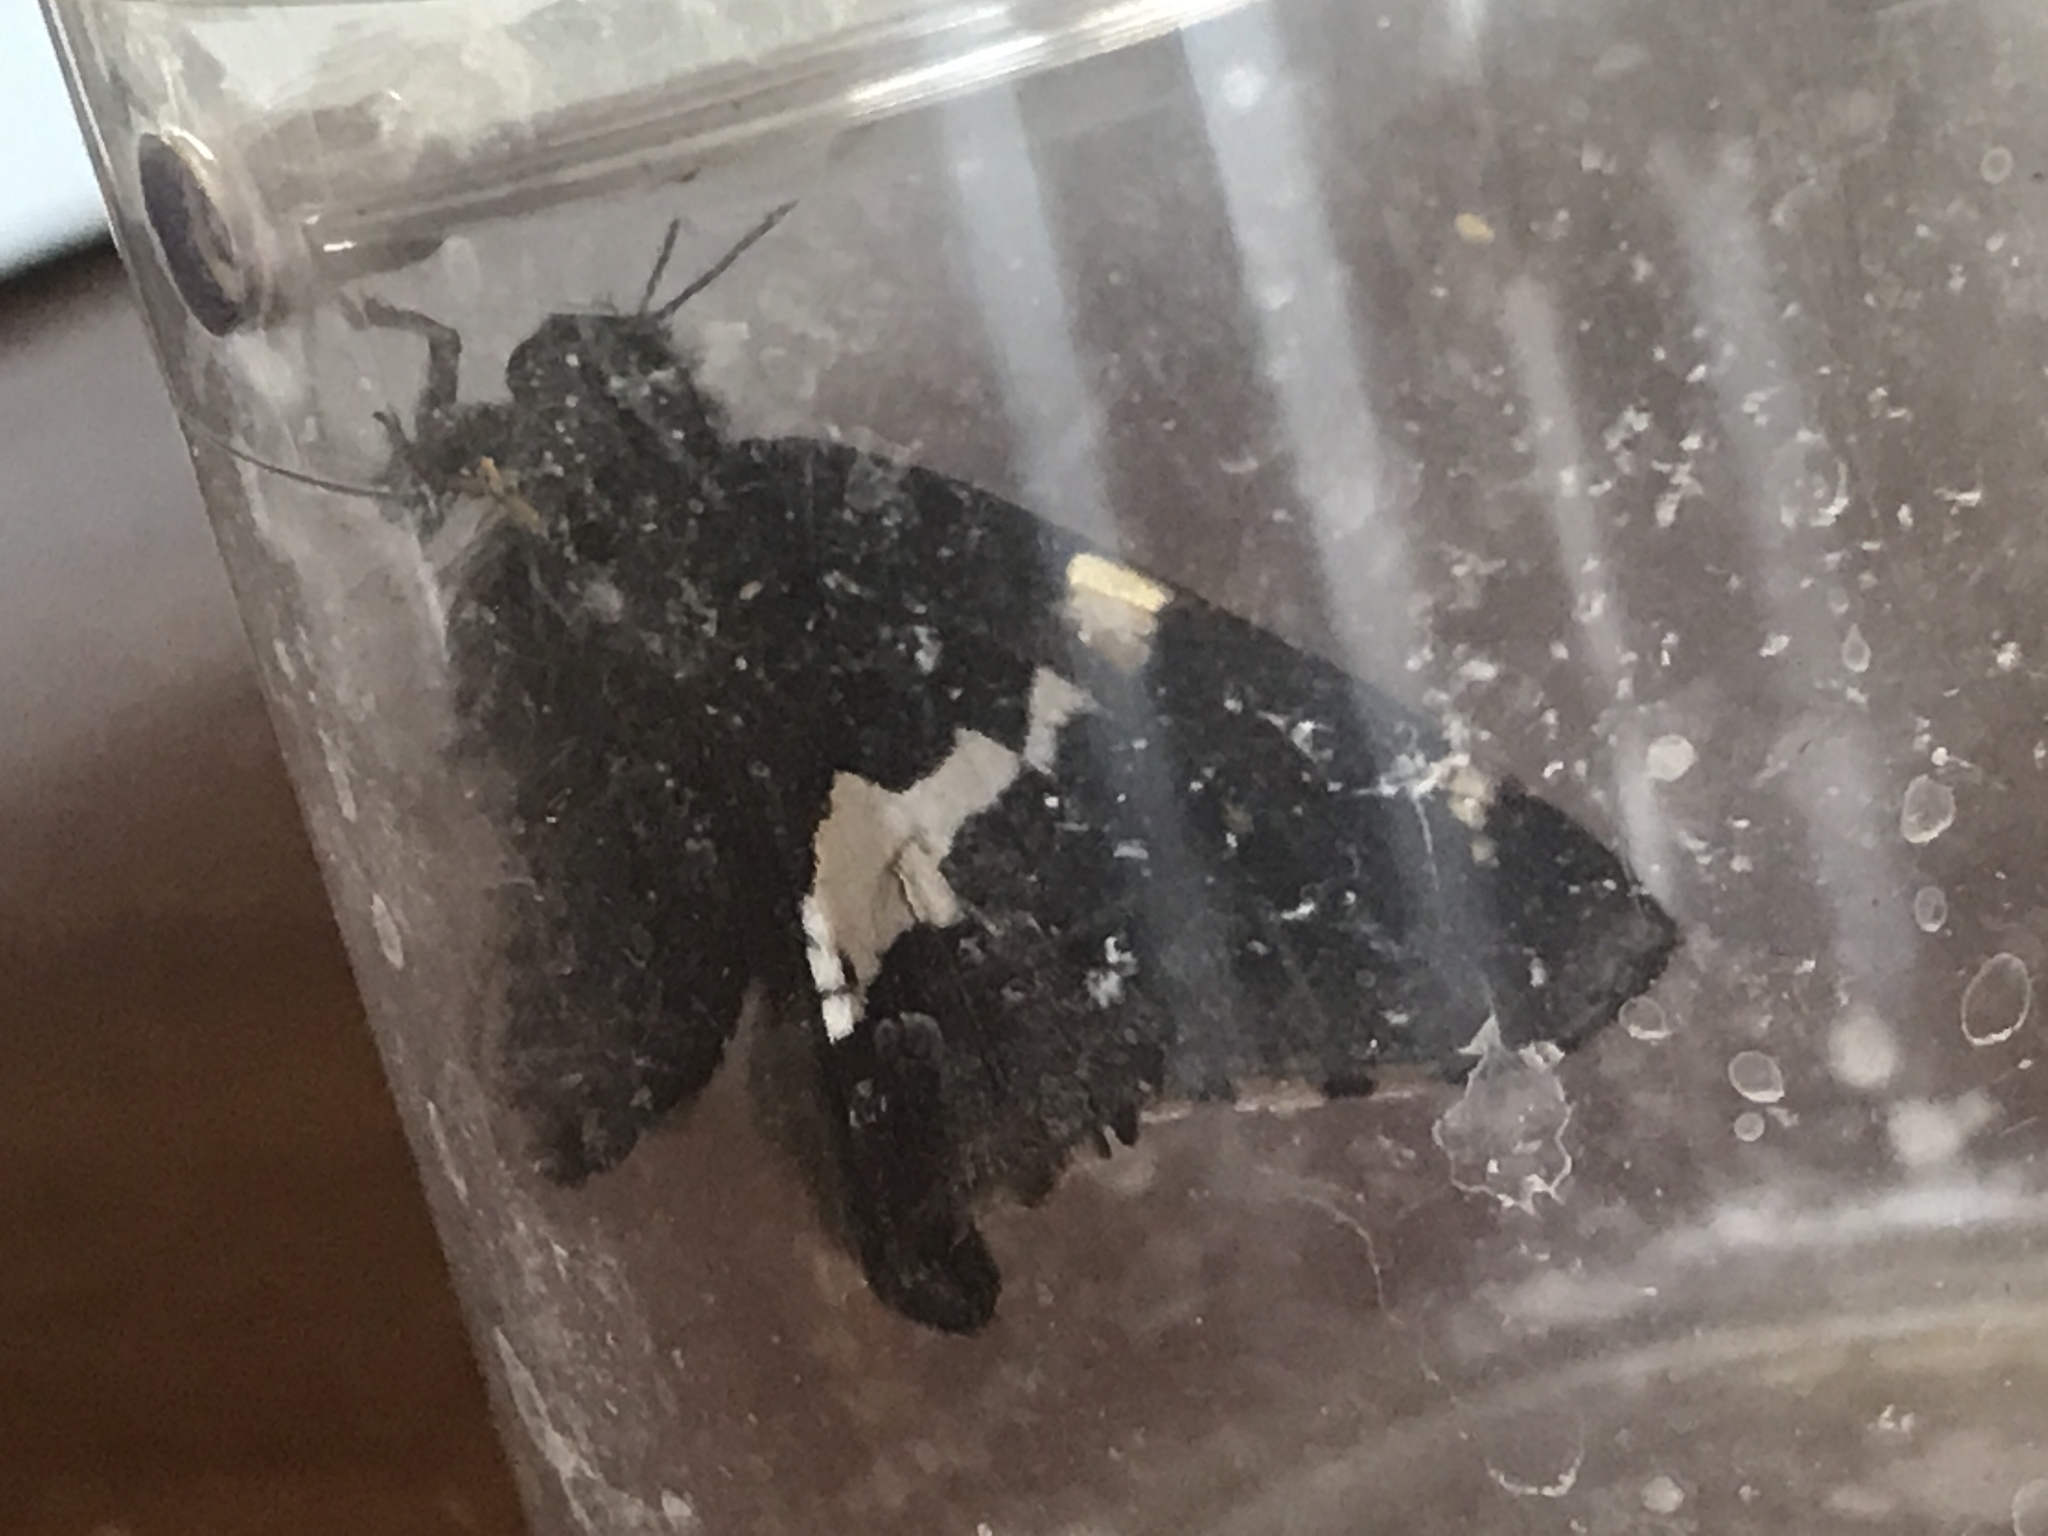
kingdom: Animalia
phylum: Arthropoda
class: Insecta
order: Lepidoptera
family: Hesperiidae
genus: Epargyreus
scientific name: Epargyreus clarus
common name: Silver-spotted skipper
